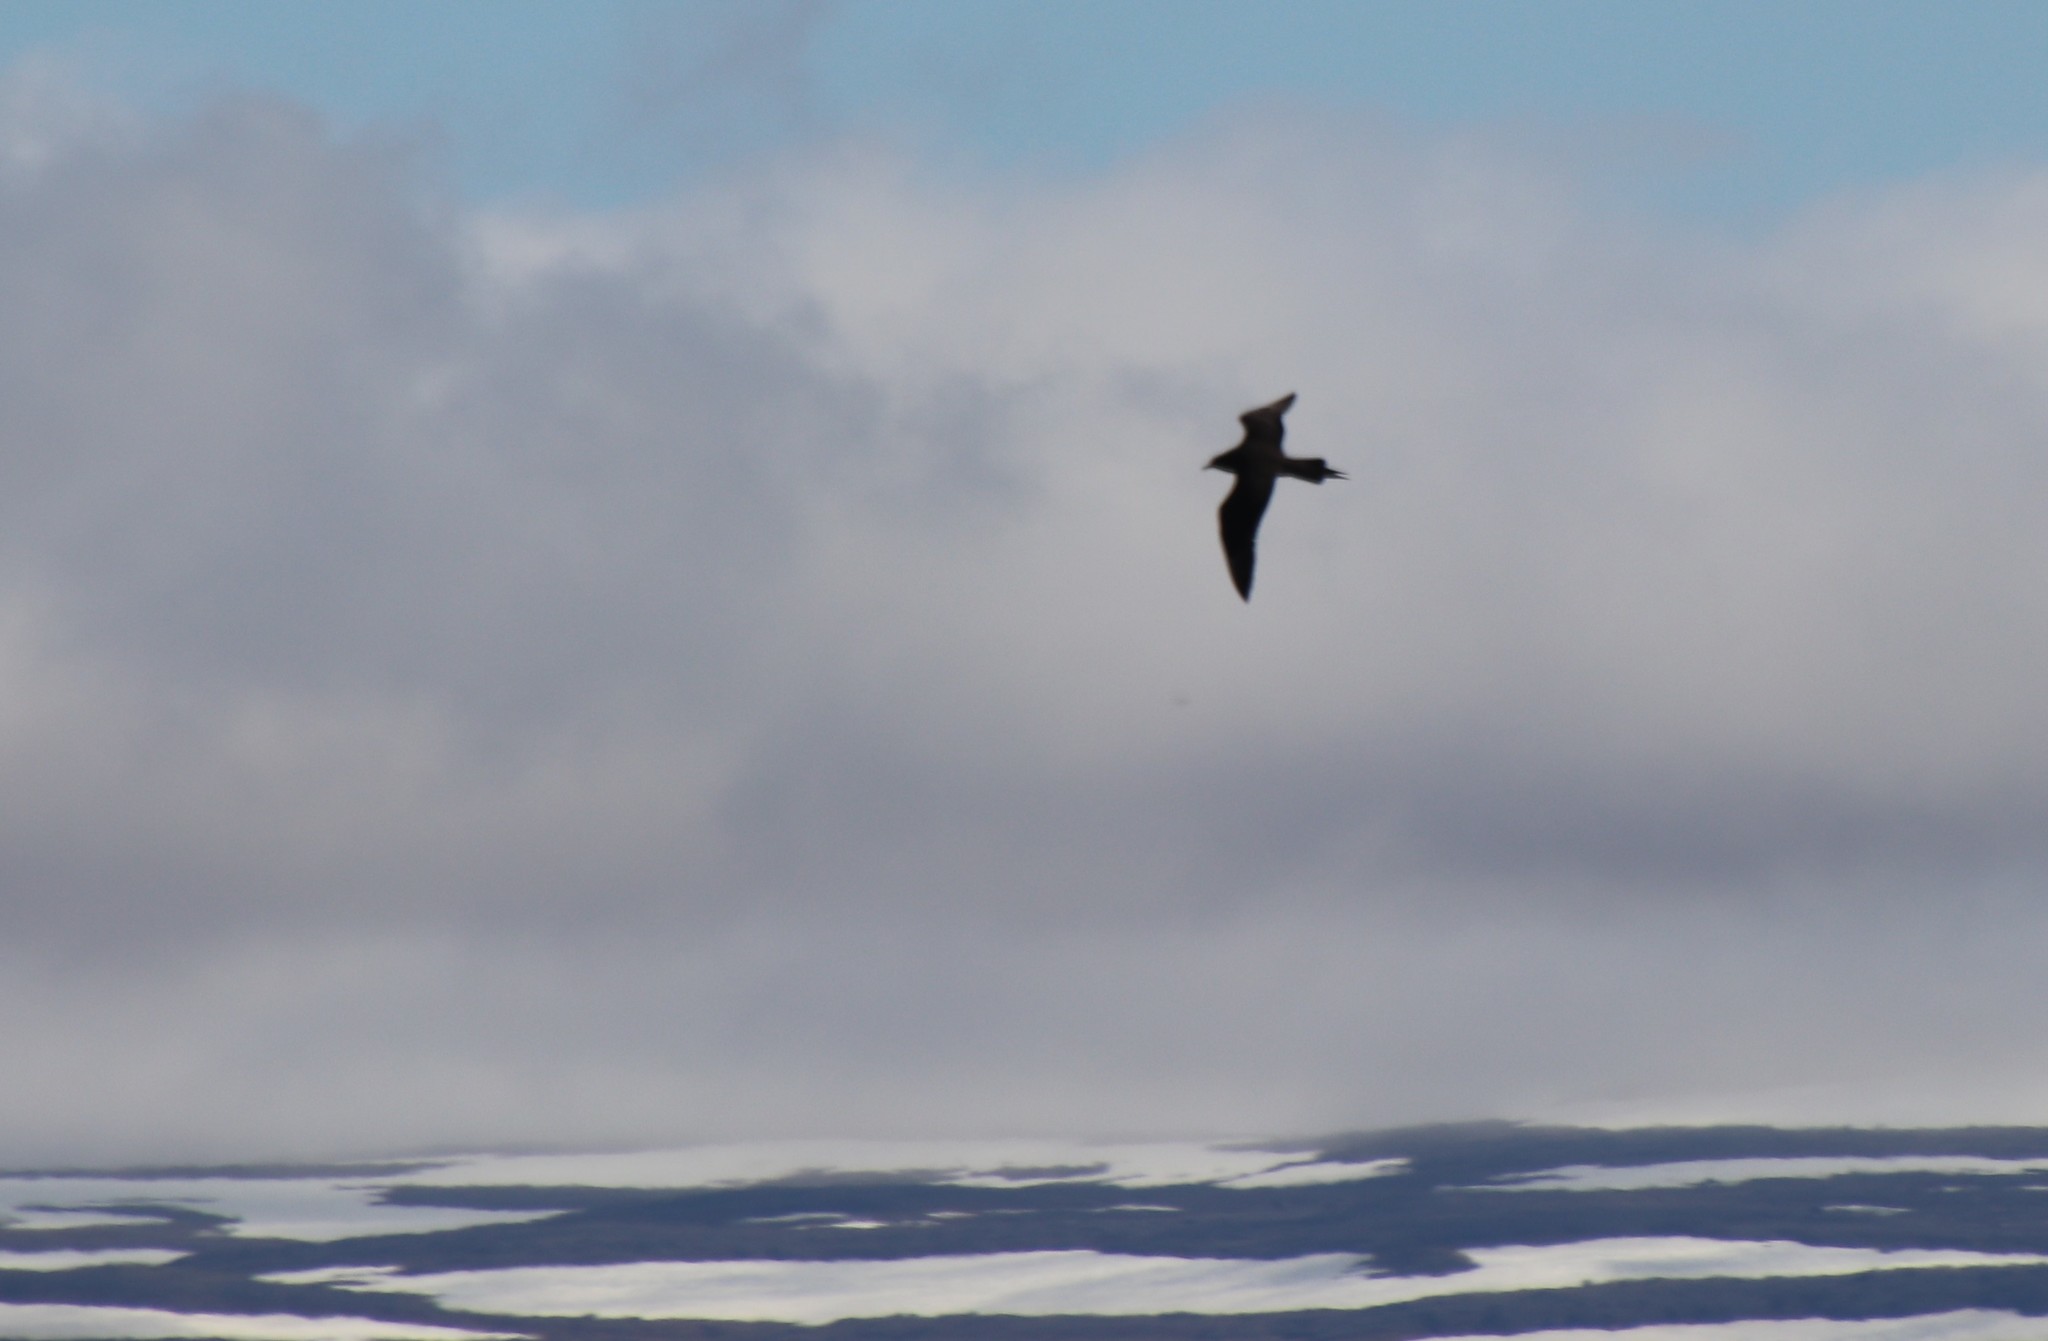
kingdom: Animalia
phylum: Chordata
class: Aves
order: Charadriiformes
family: Stercorariidae
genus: Stercorarius
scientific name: Stercorarius parasiticus
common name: Parasitic jaeger
